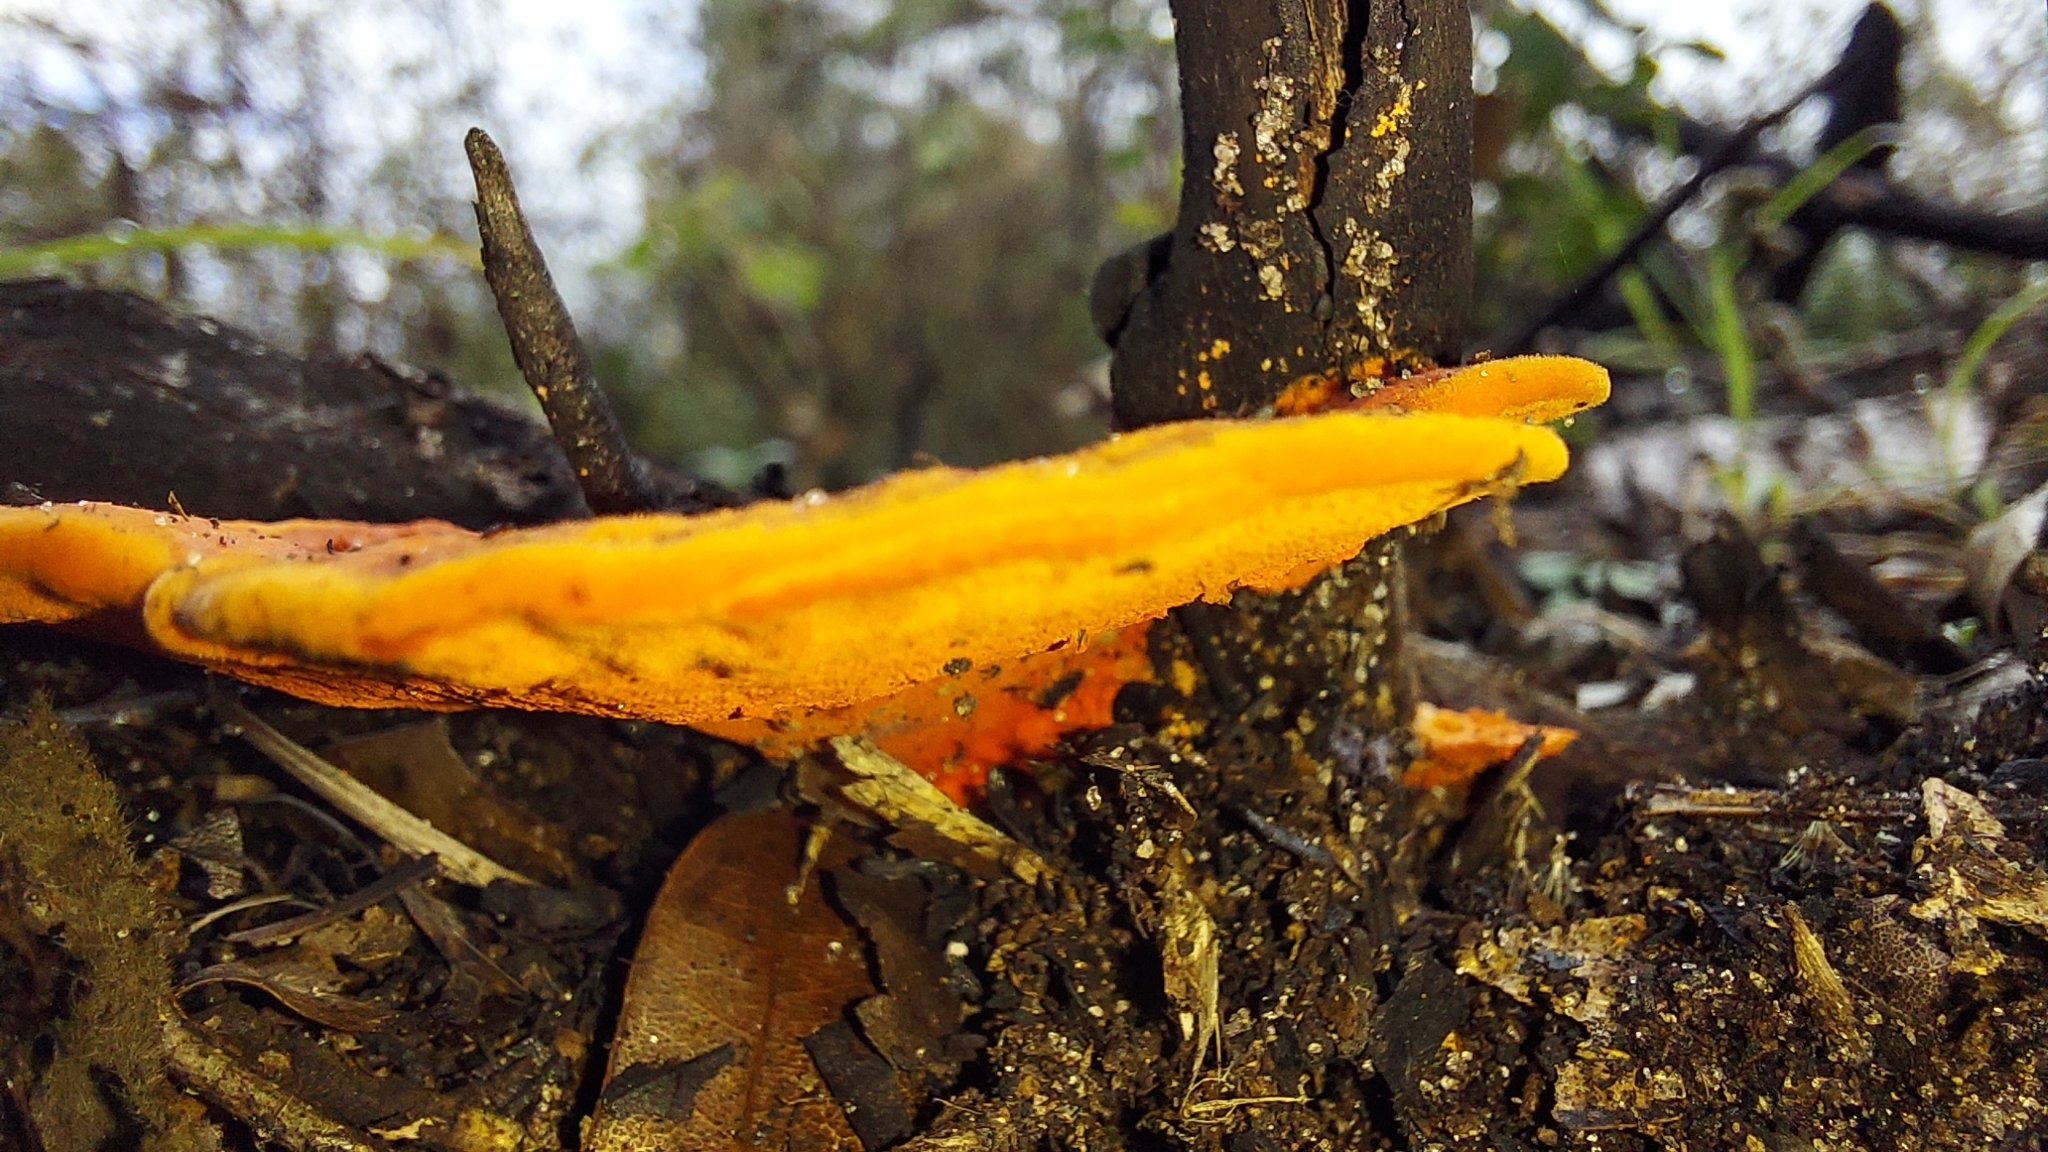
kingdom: Fungi
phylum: Basidiomycota
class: Agaricomycetes
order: Polyporales
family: Polyporaceae
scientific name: Polyporaceae
